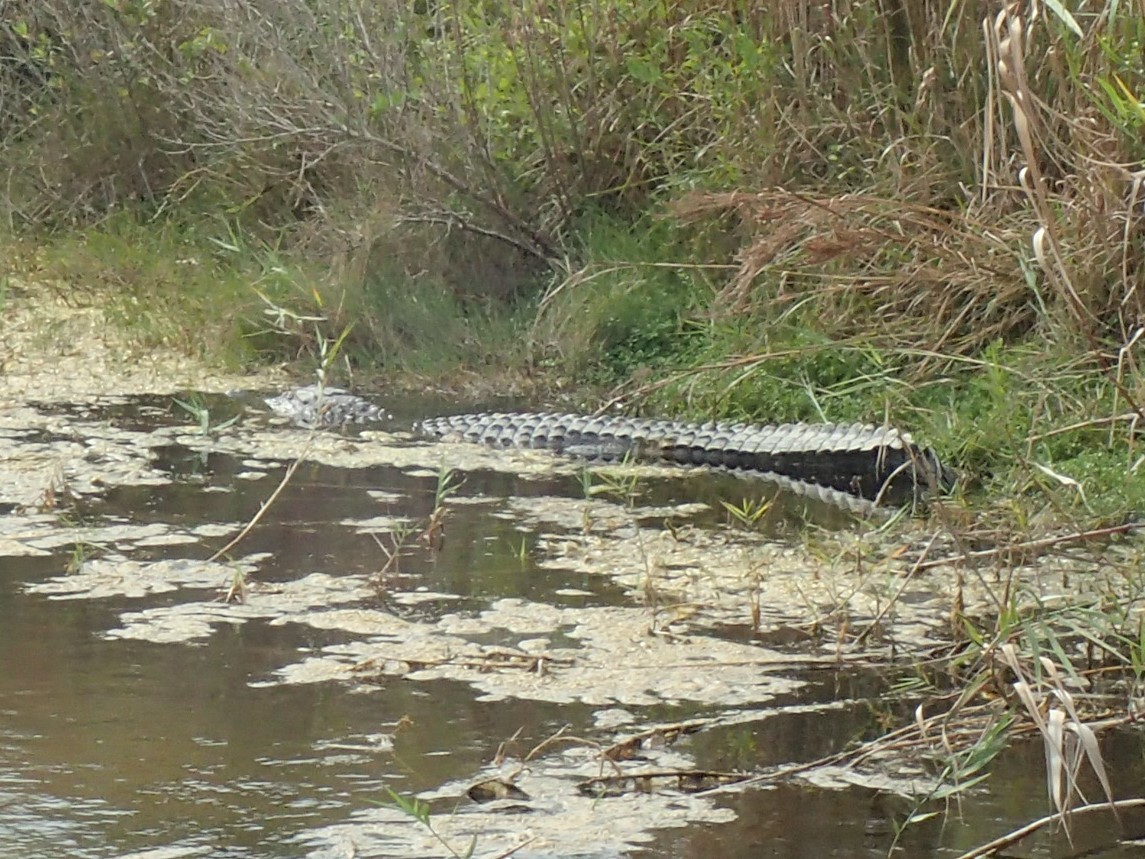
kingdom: Animalia
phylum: Chordata
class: Crocodylia
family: Alligatoridae
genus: Alligator
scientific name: Alligator mississippiensis
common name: American alligator
